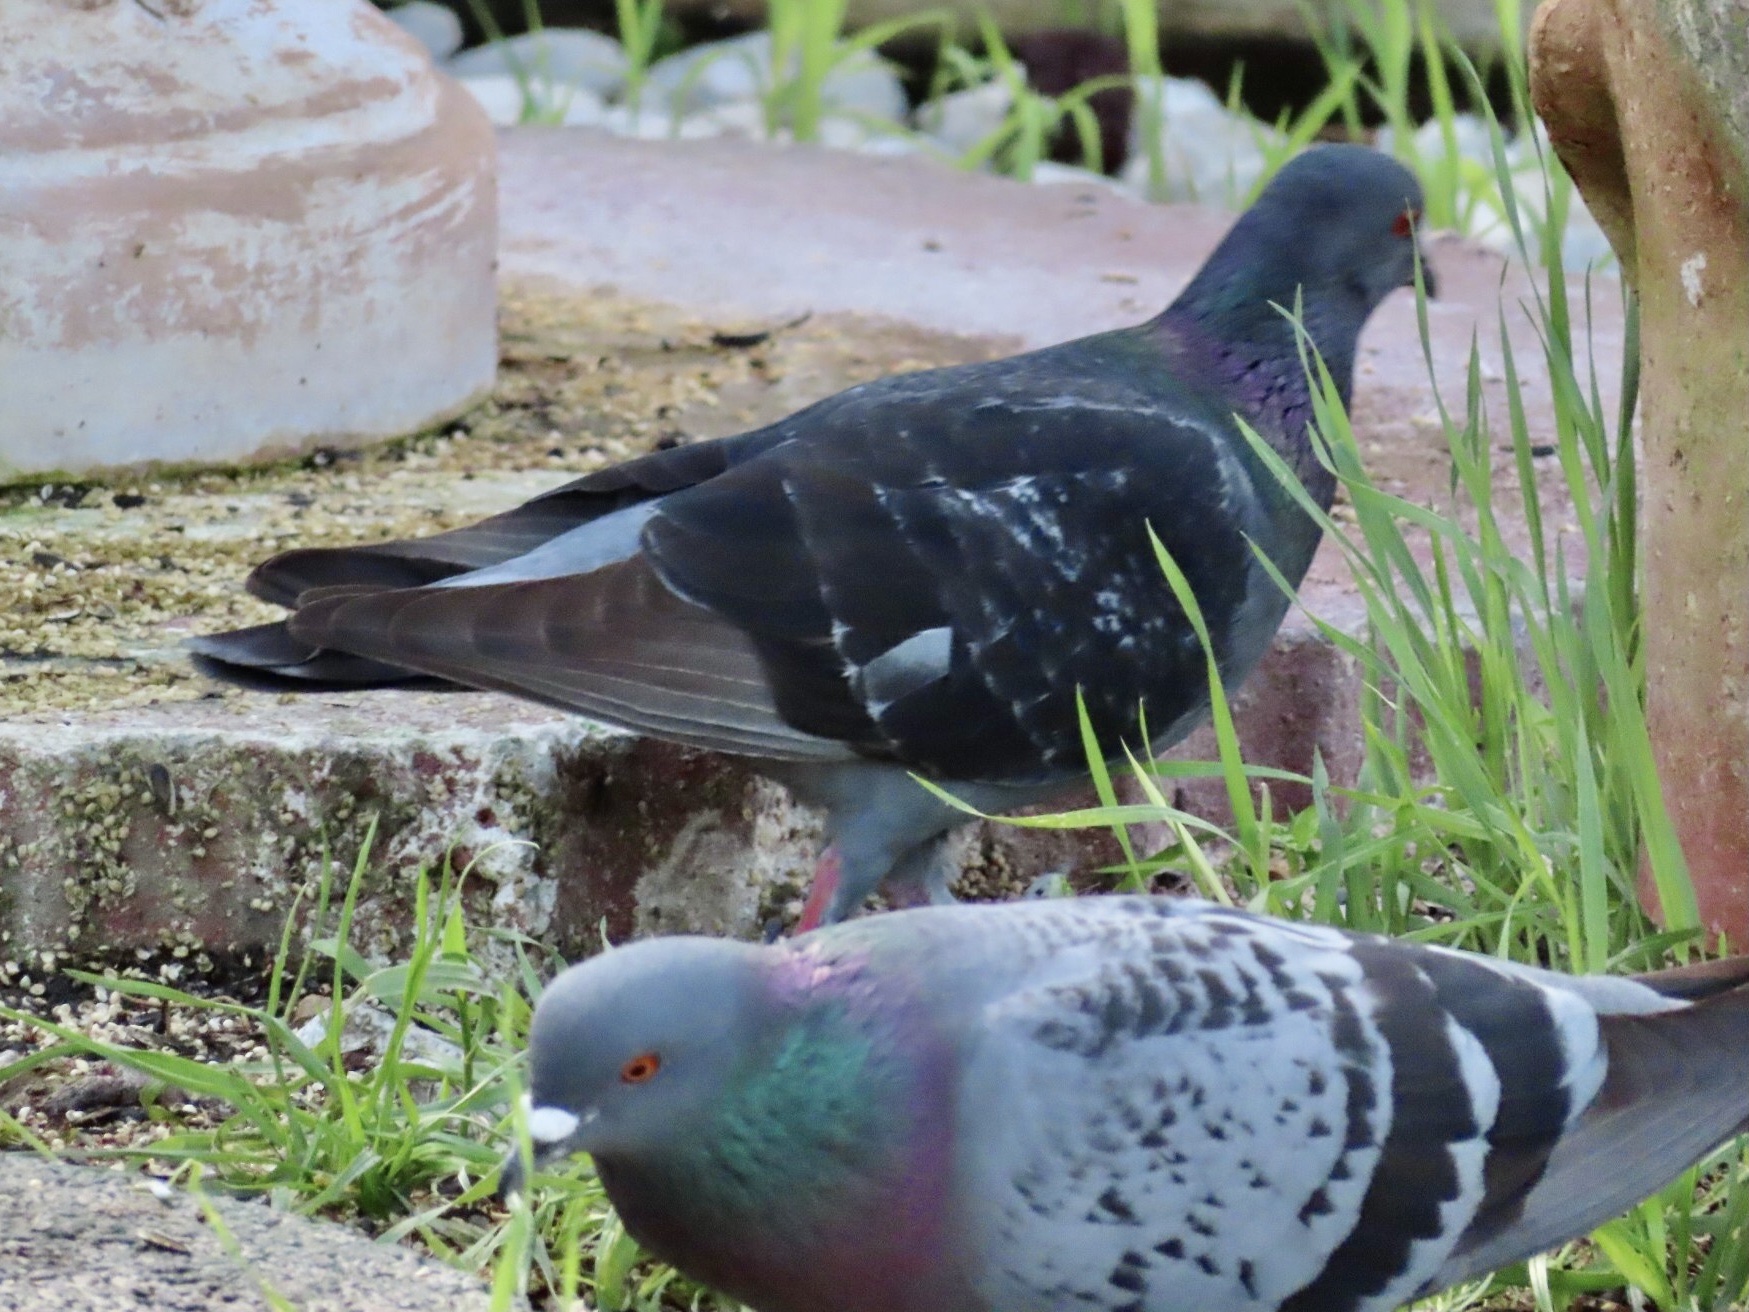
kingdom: Animalia
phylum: Chordata
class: Aves
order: Columbiformes
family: Columbidae
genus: Columba
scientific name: Columba livia
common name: Rock pigeon
